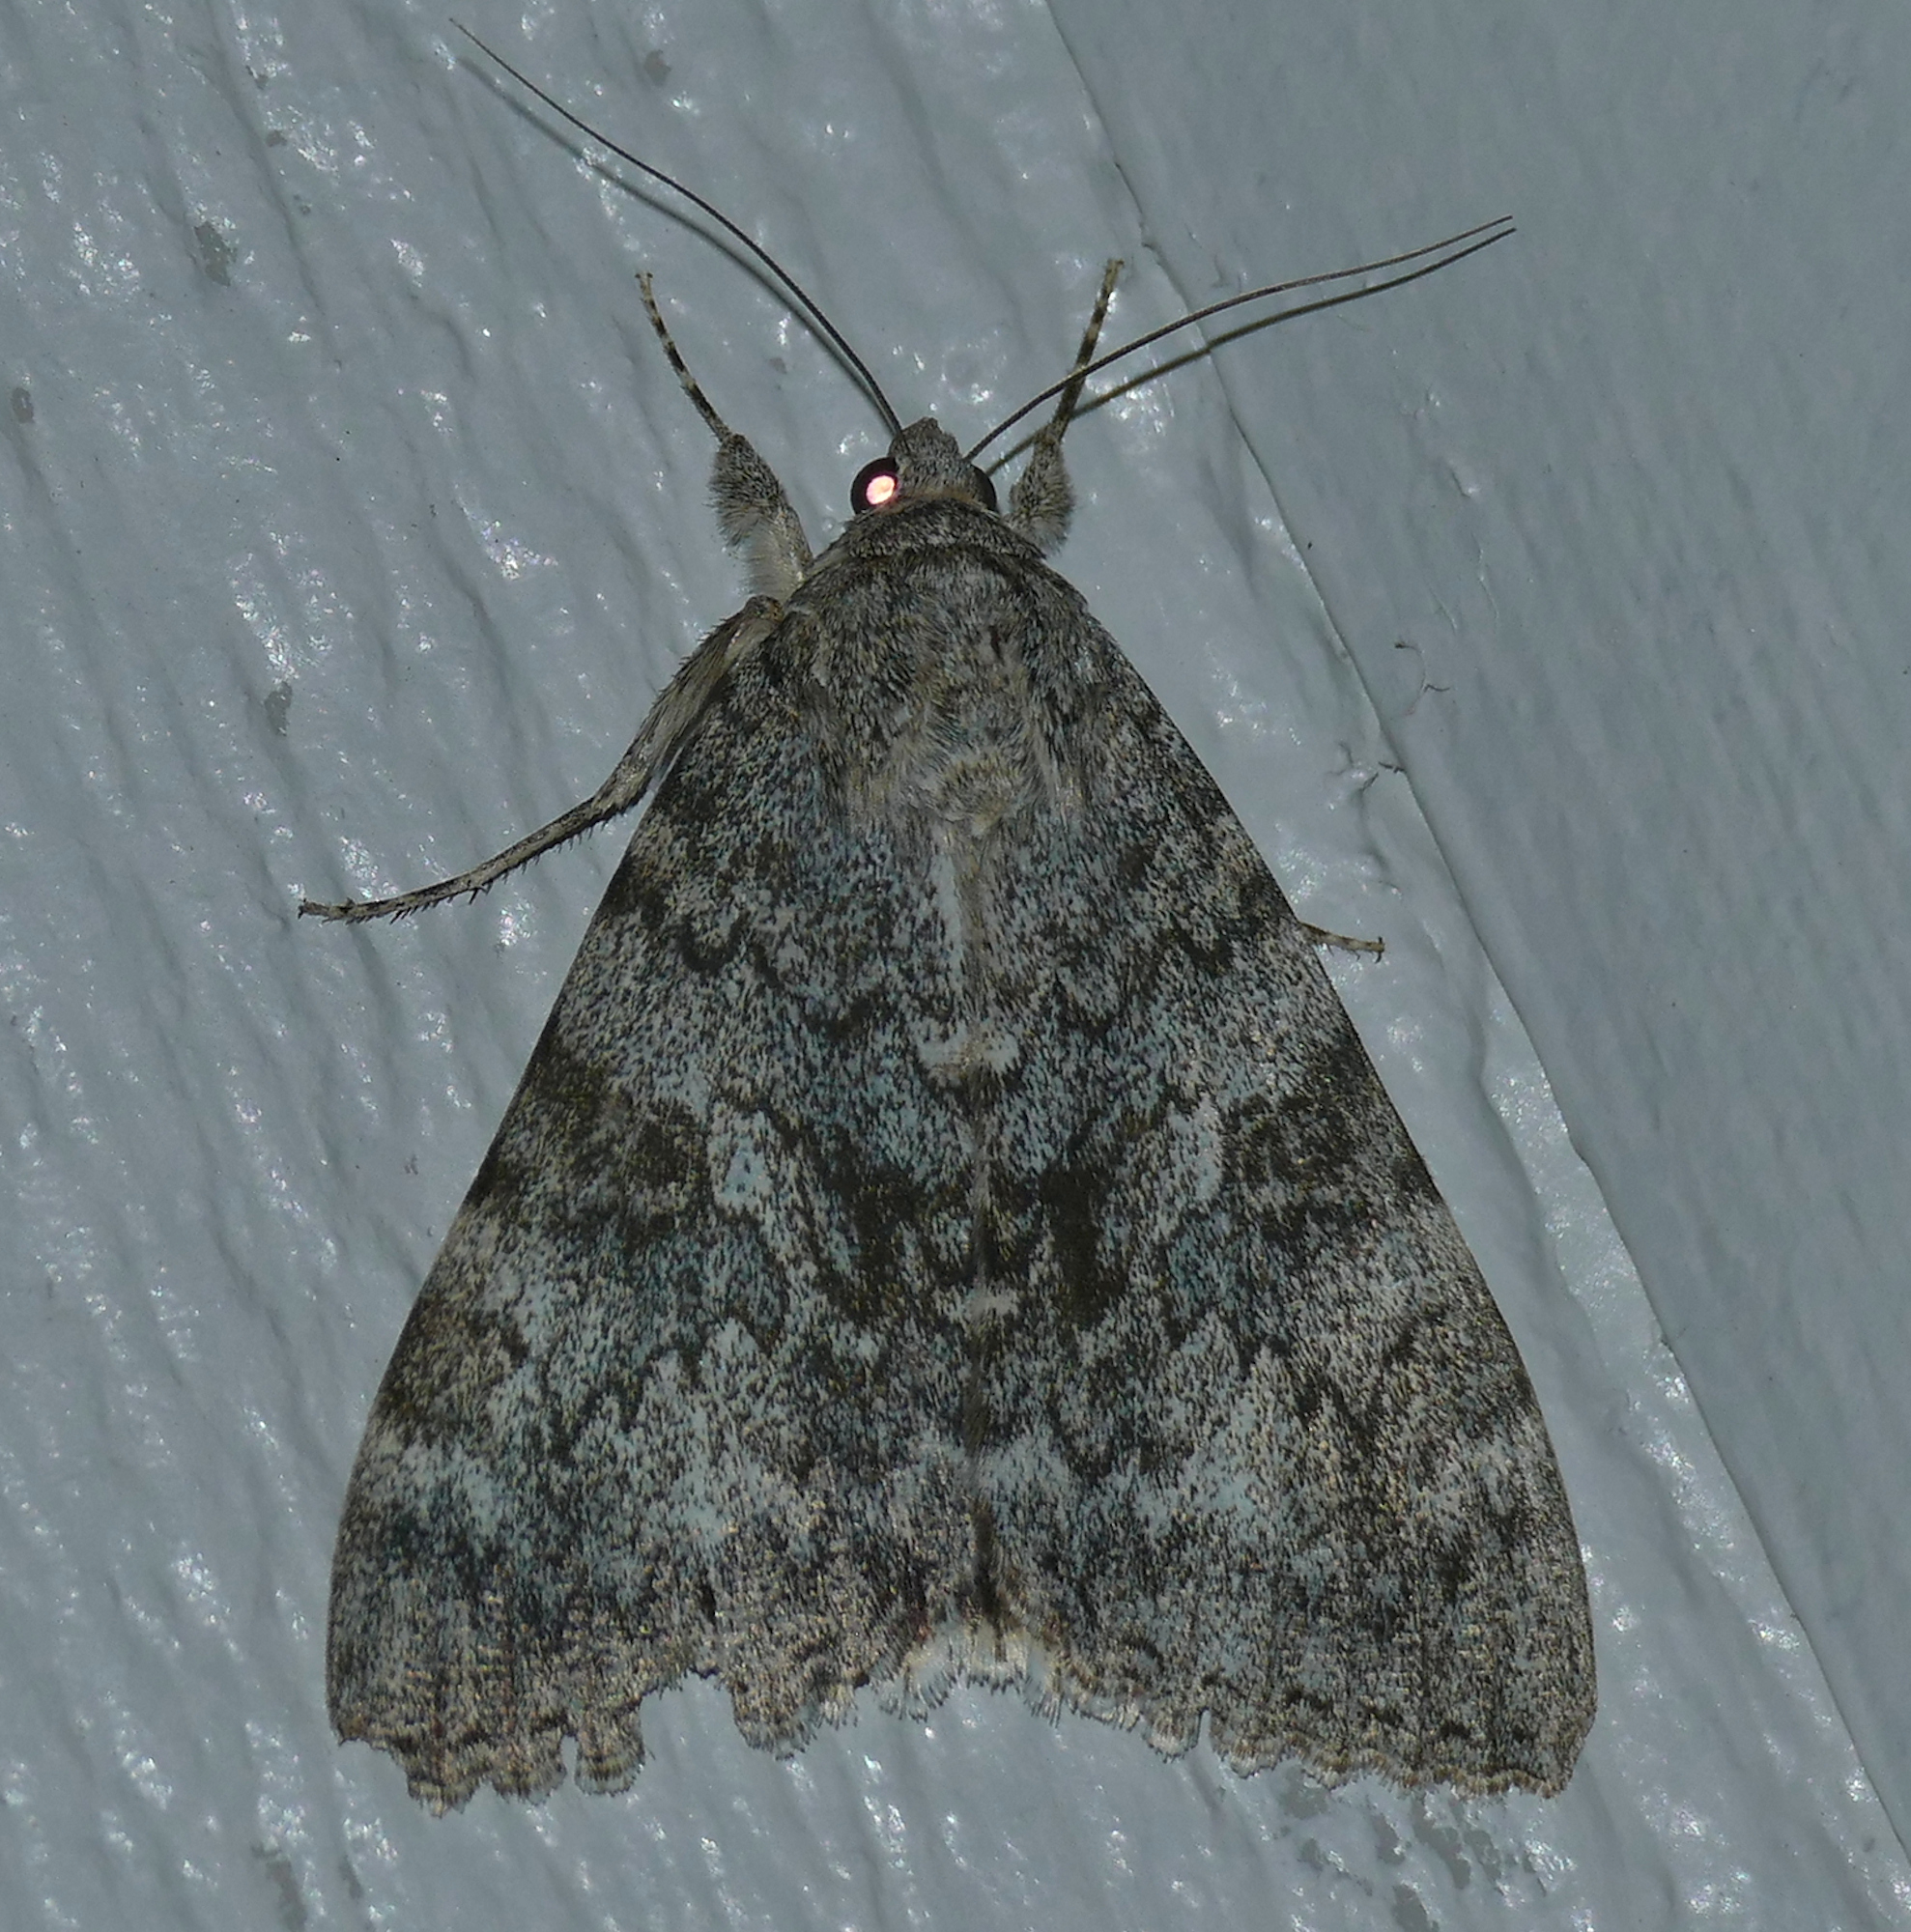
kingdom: Animalia
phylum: Arthropoda
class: Insecta
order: Lepidoptera
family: Erebidae
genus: Catocala
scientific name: Catocala californica
